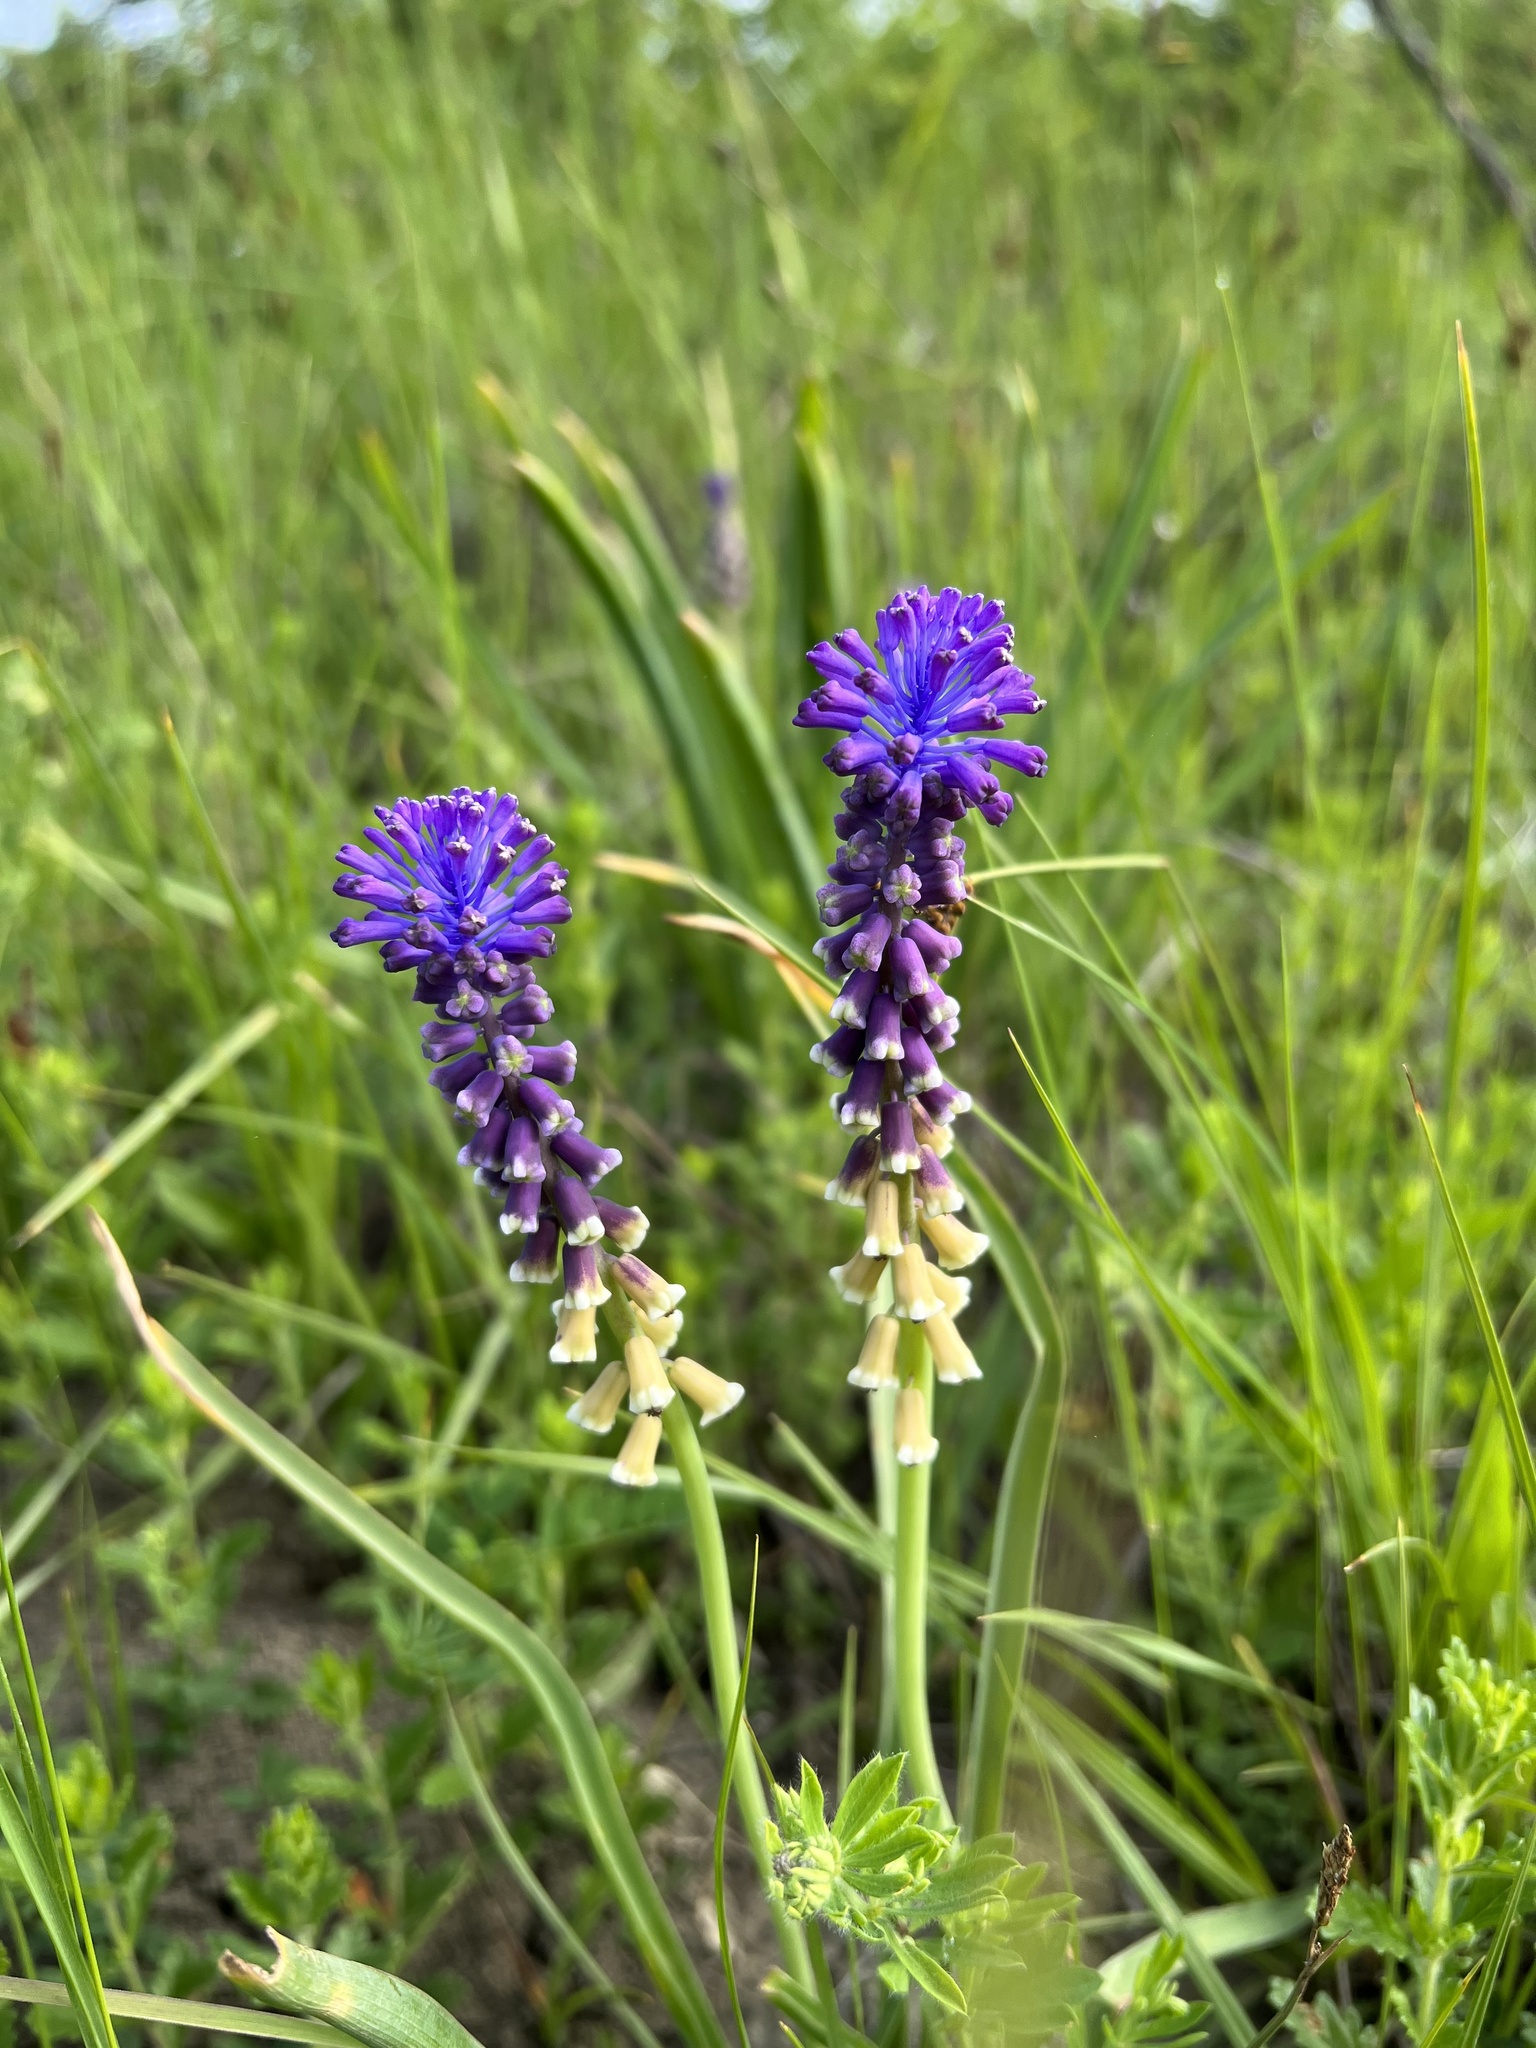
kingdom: Plantae
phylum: Tracheophyta
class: Liliopsida
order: Asparagales
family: Asparagaceae
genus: Muscari
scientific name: Muscari tenuiflorum
